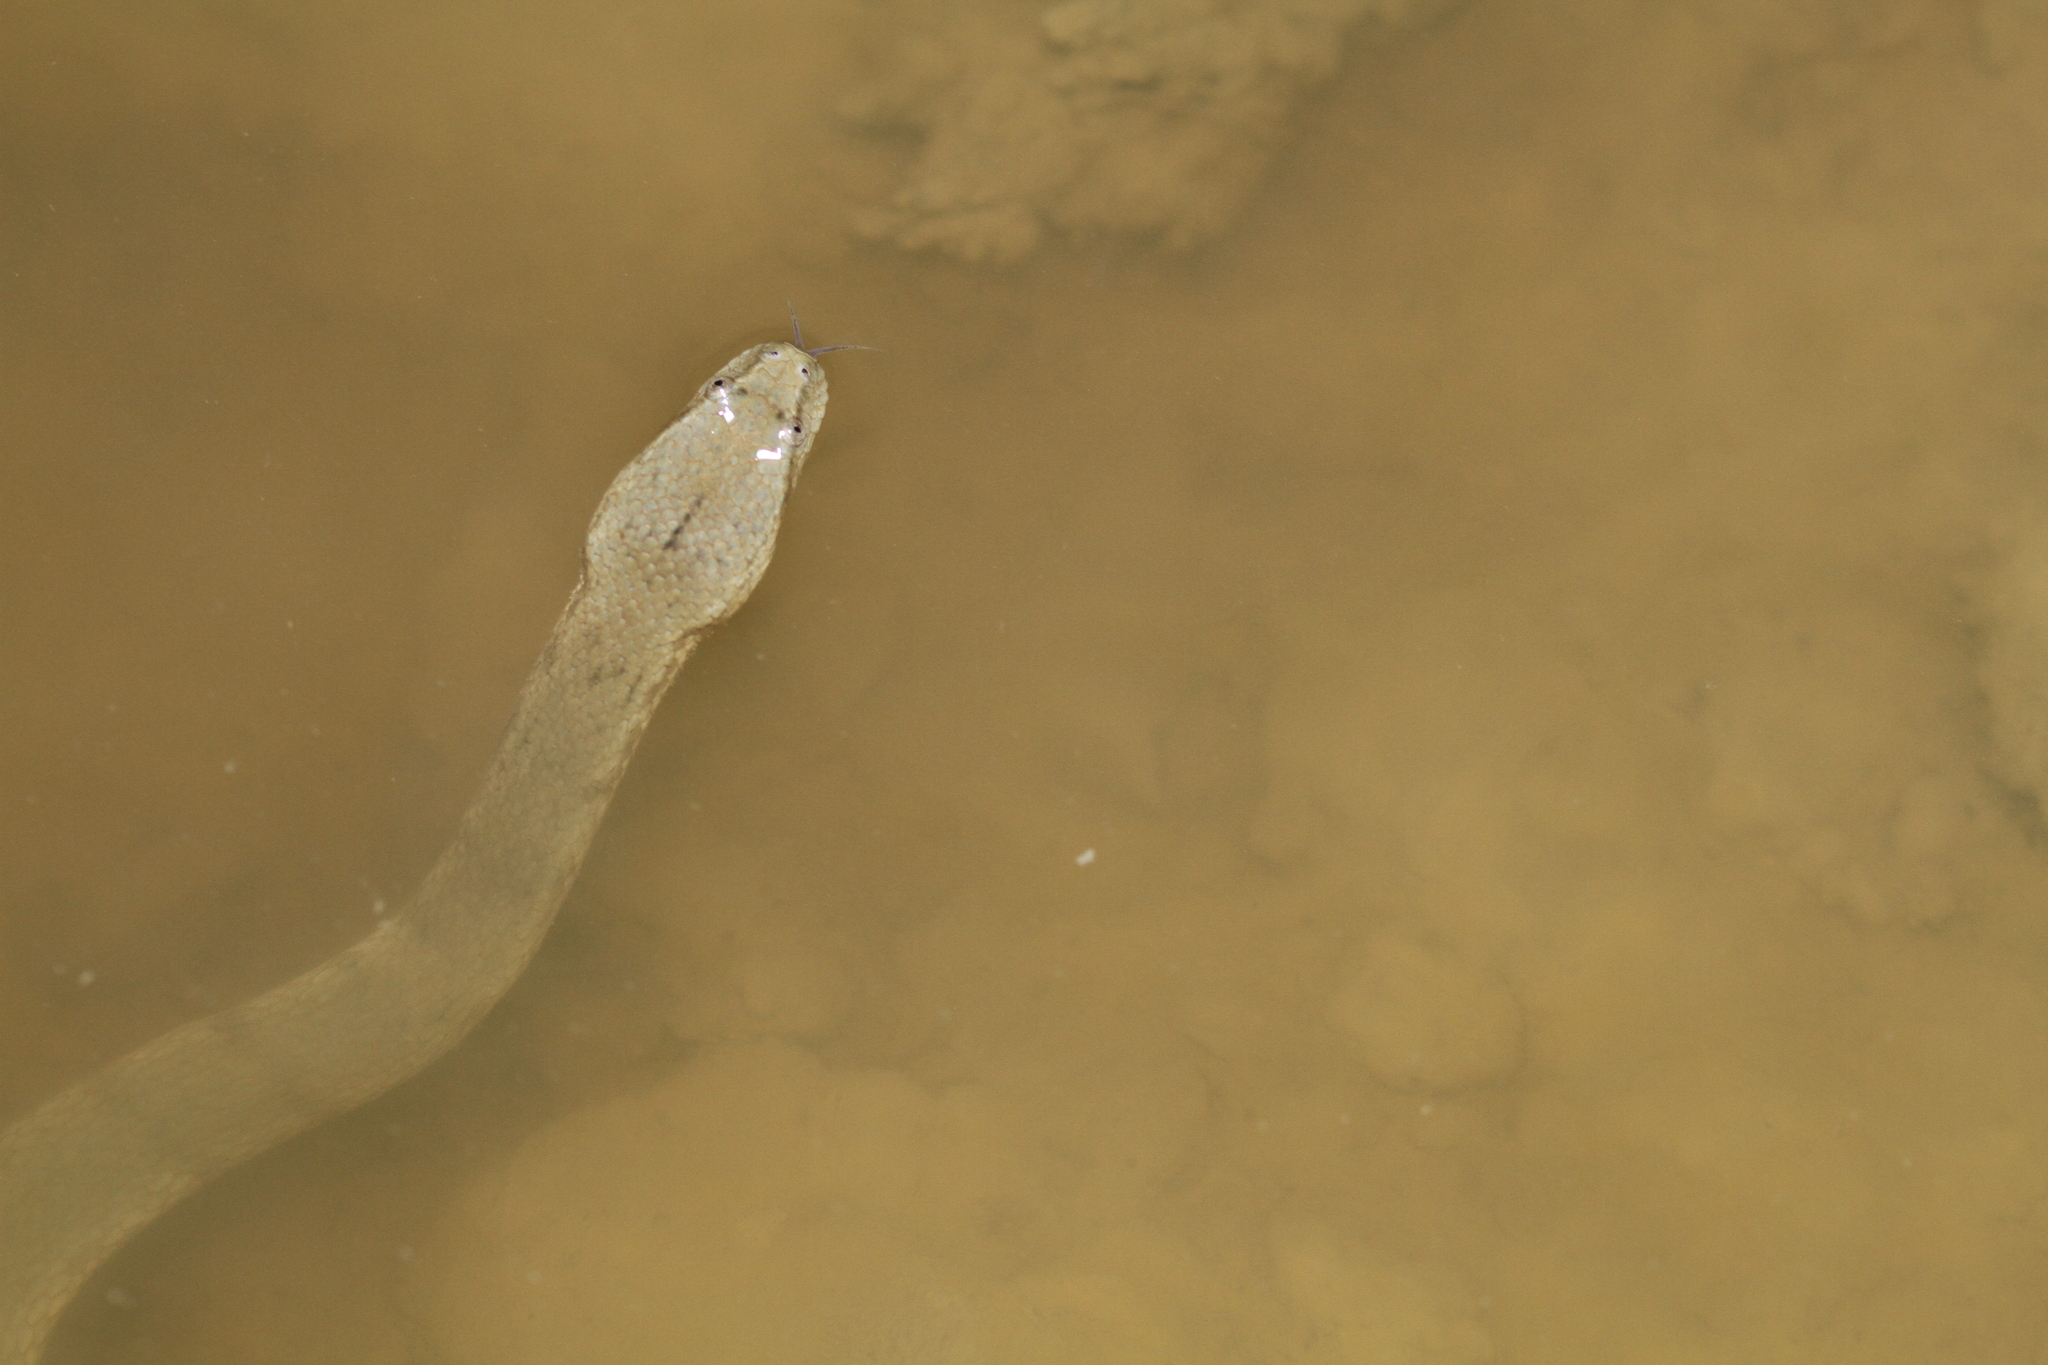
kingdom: Animalia
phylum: Chordata
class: Squamata
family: Homalopsidae
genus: Cerberus
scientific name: Cerberus schneiderii
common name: Southeast asian bockadam
